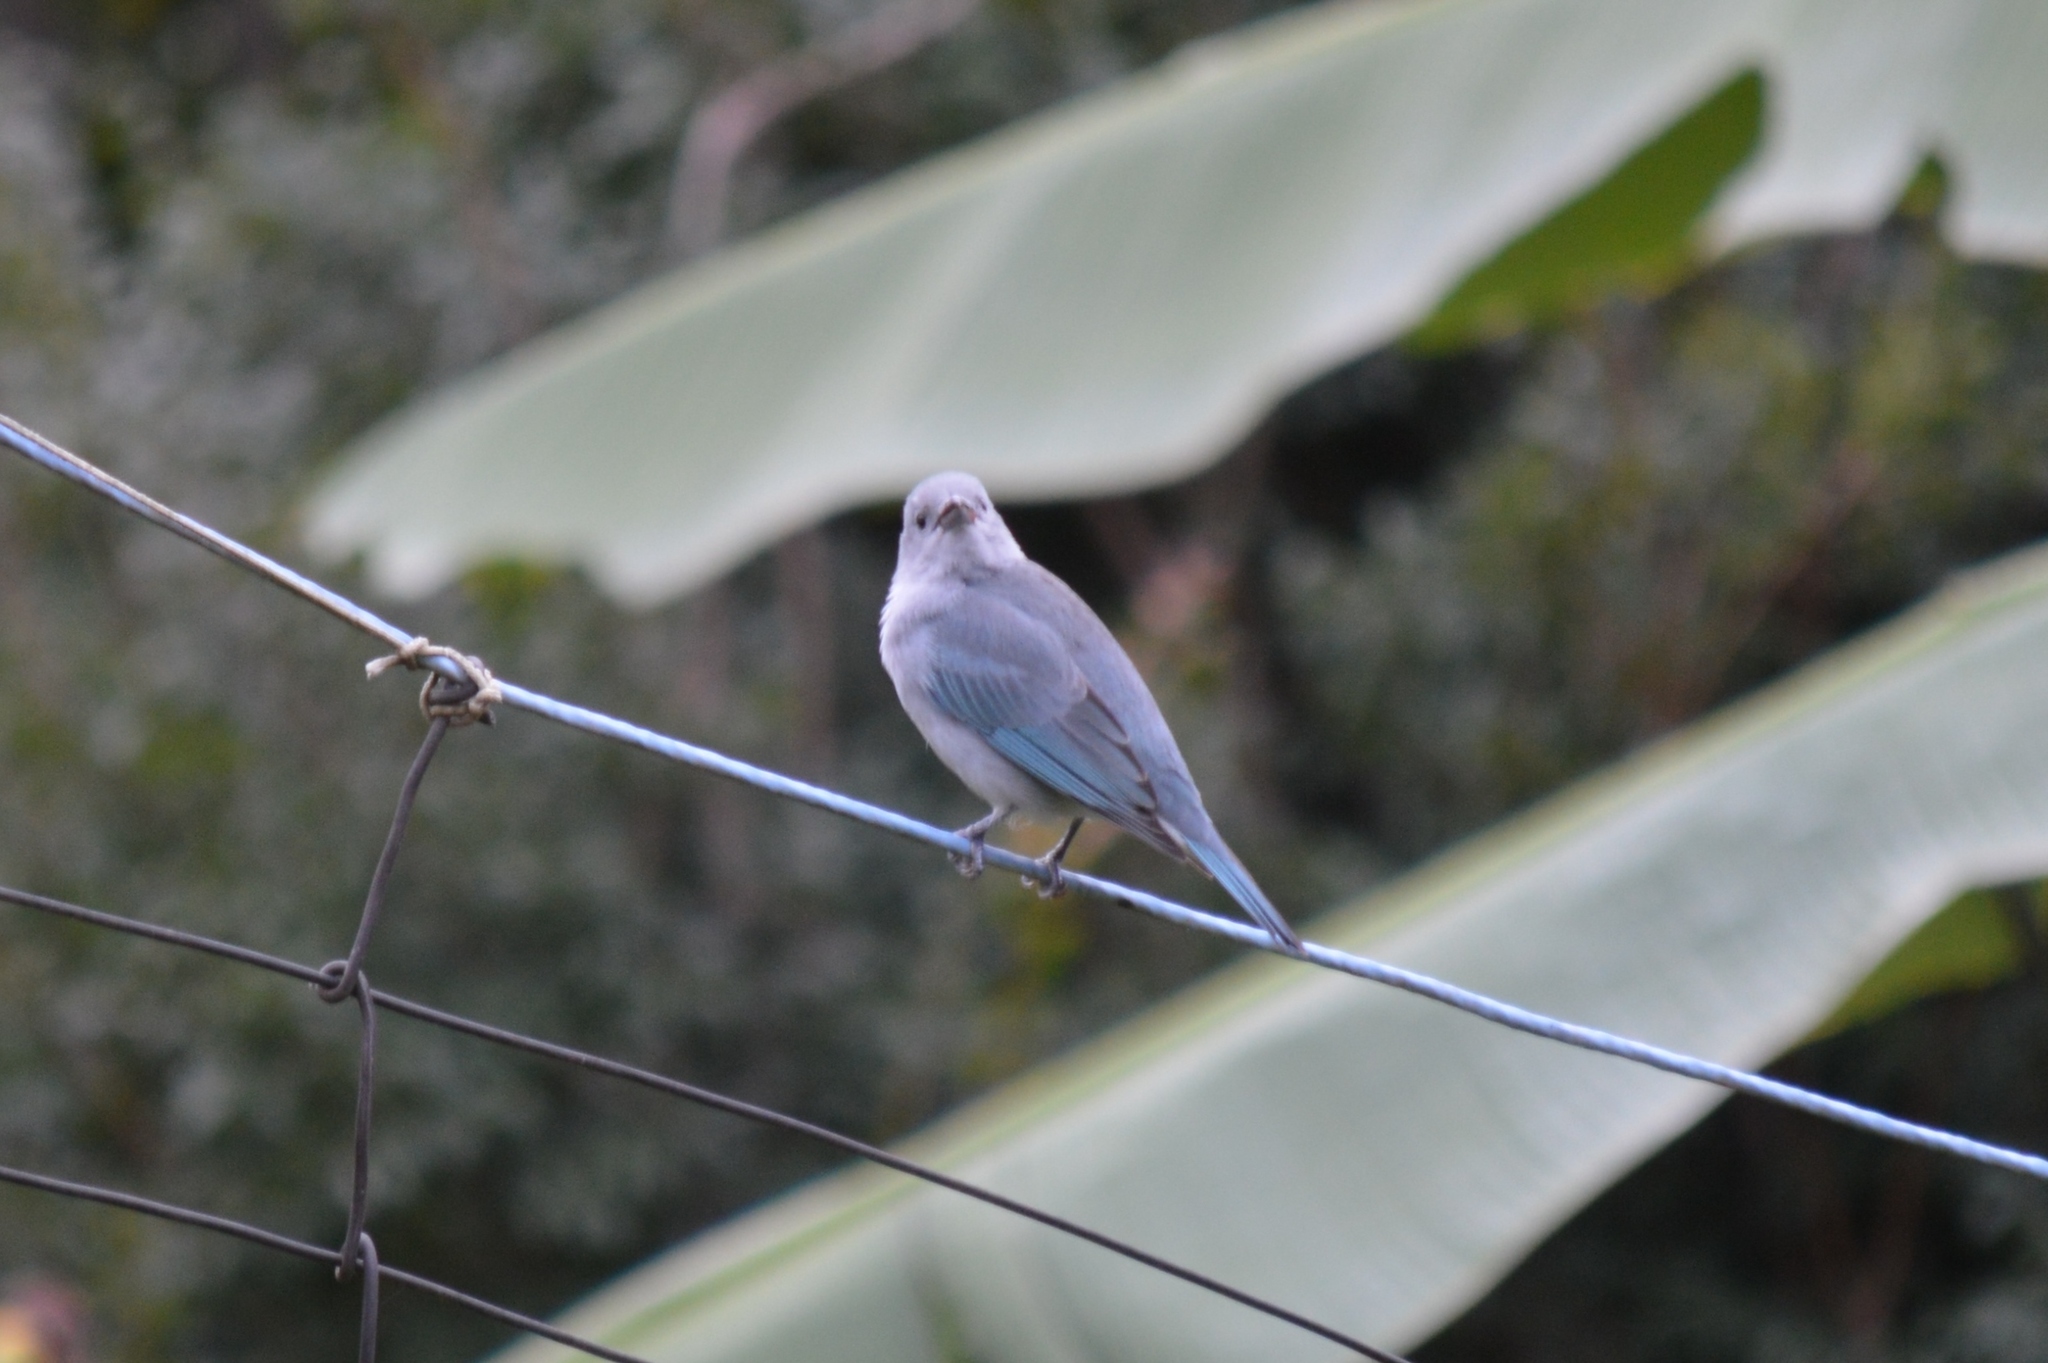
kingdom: Animalia
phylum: Chordata
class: Aves
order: Passeriformes
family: Thraupidae
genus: Thraupis
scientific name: Thraupis sayaca
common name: Sayaca tanager
